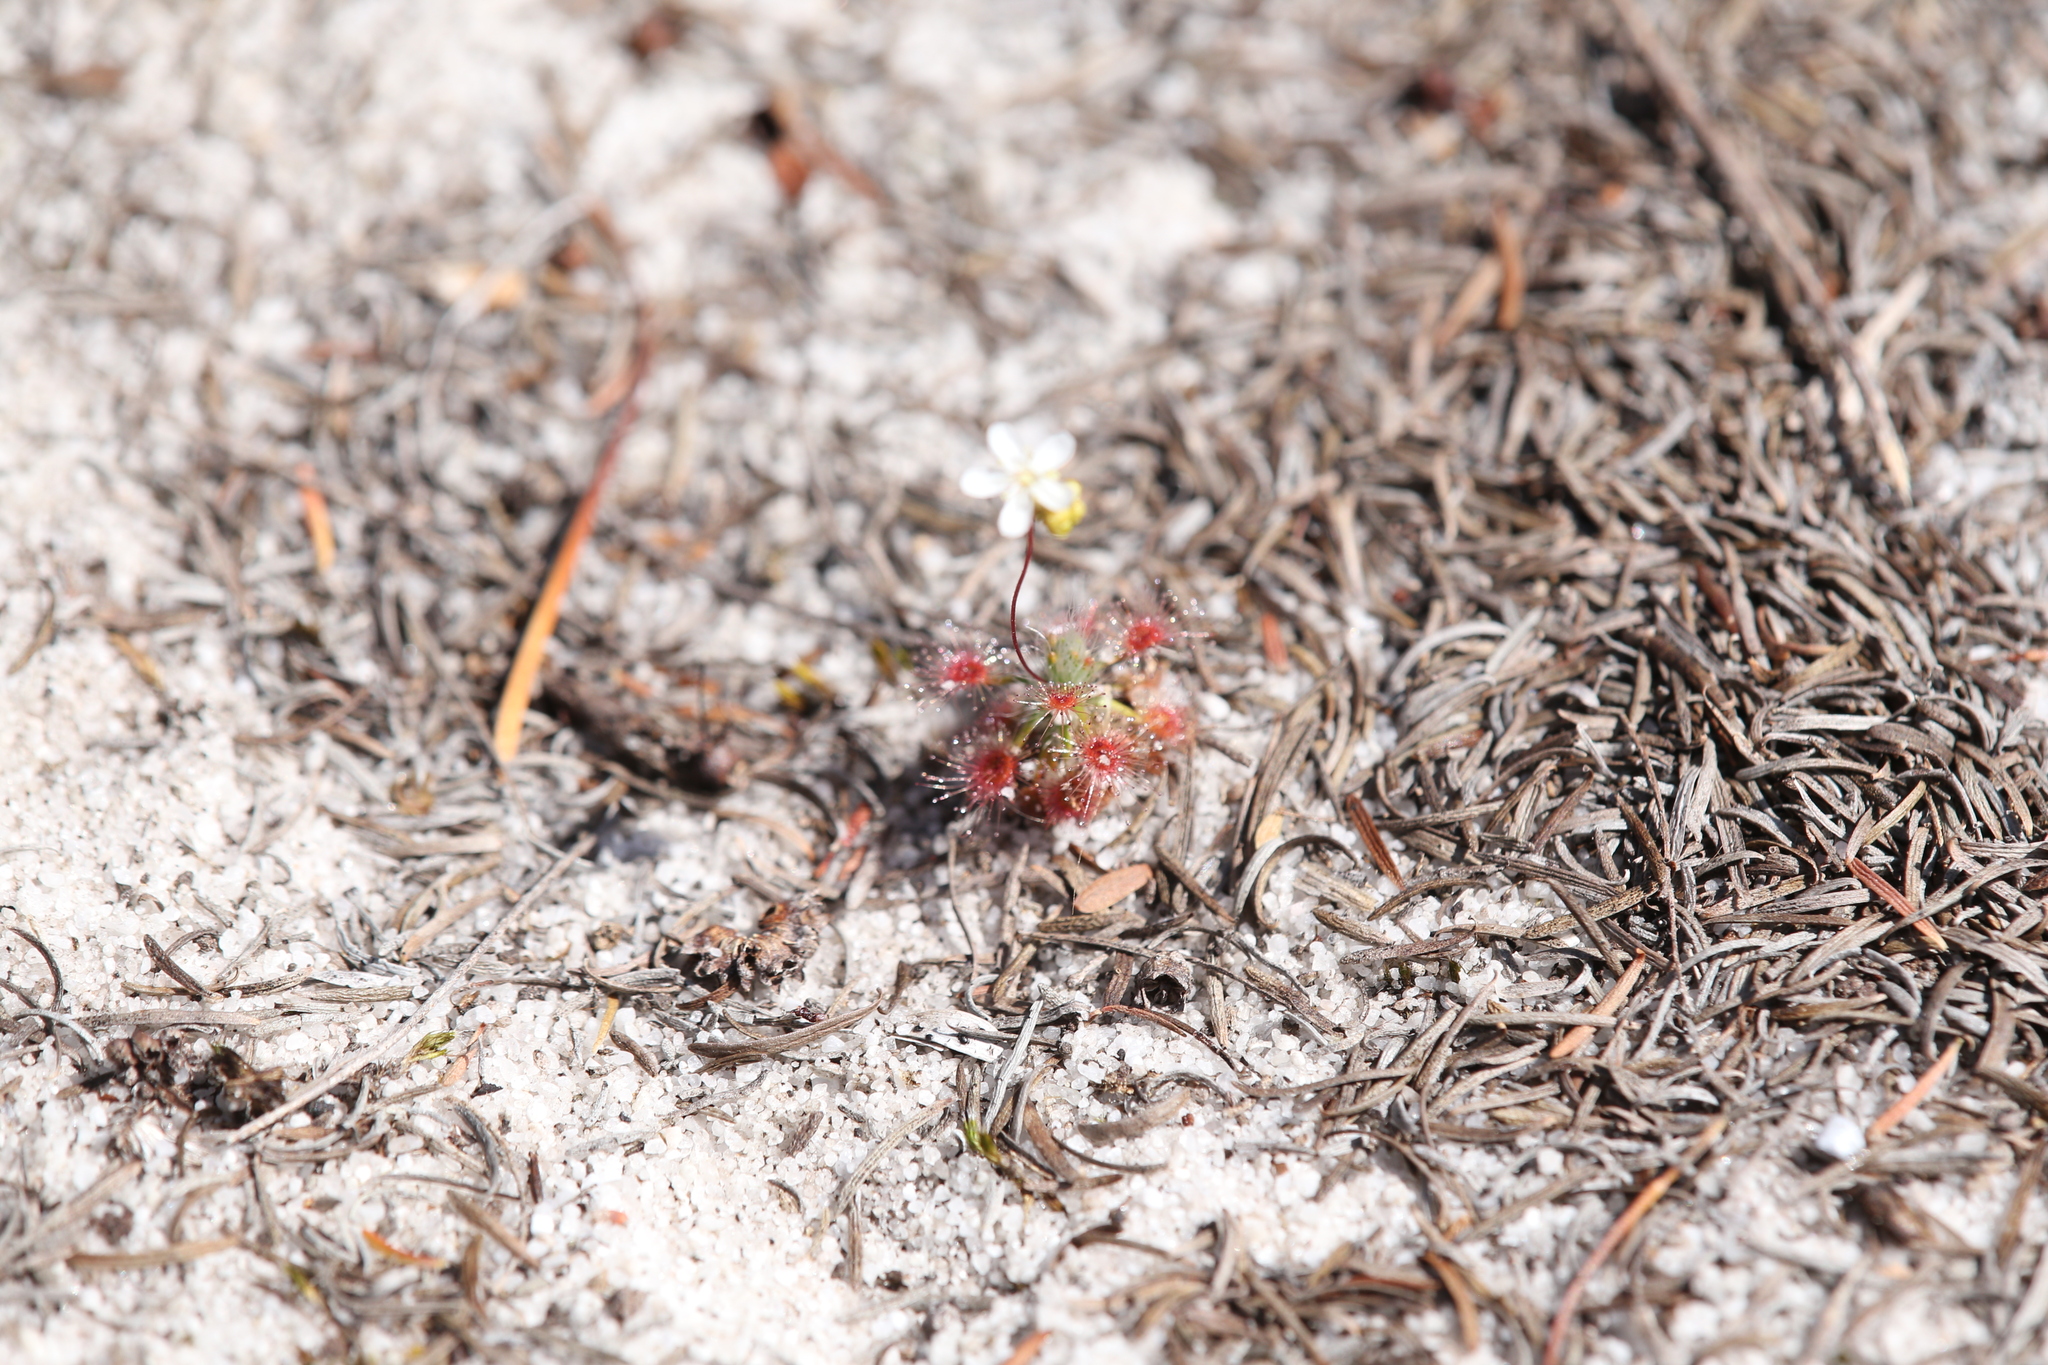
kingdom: Plantae
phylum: Tracheophyta
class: Magnoliopsida
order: Caryophyllales
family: Droseraceae
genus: Drosera
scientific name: Drosera paleacea
